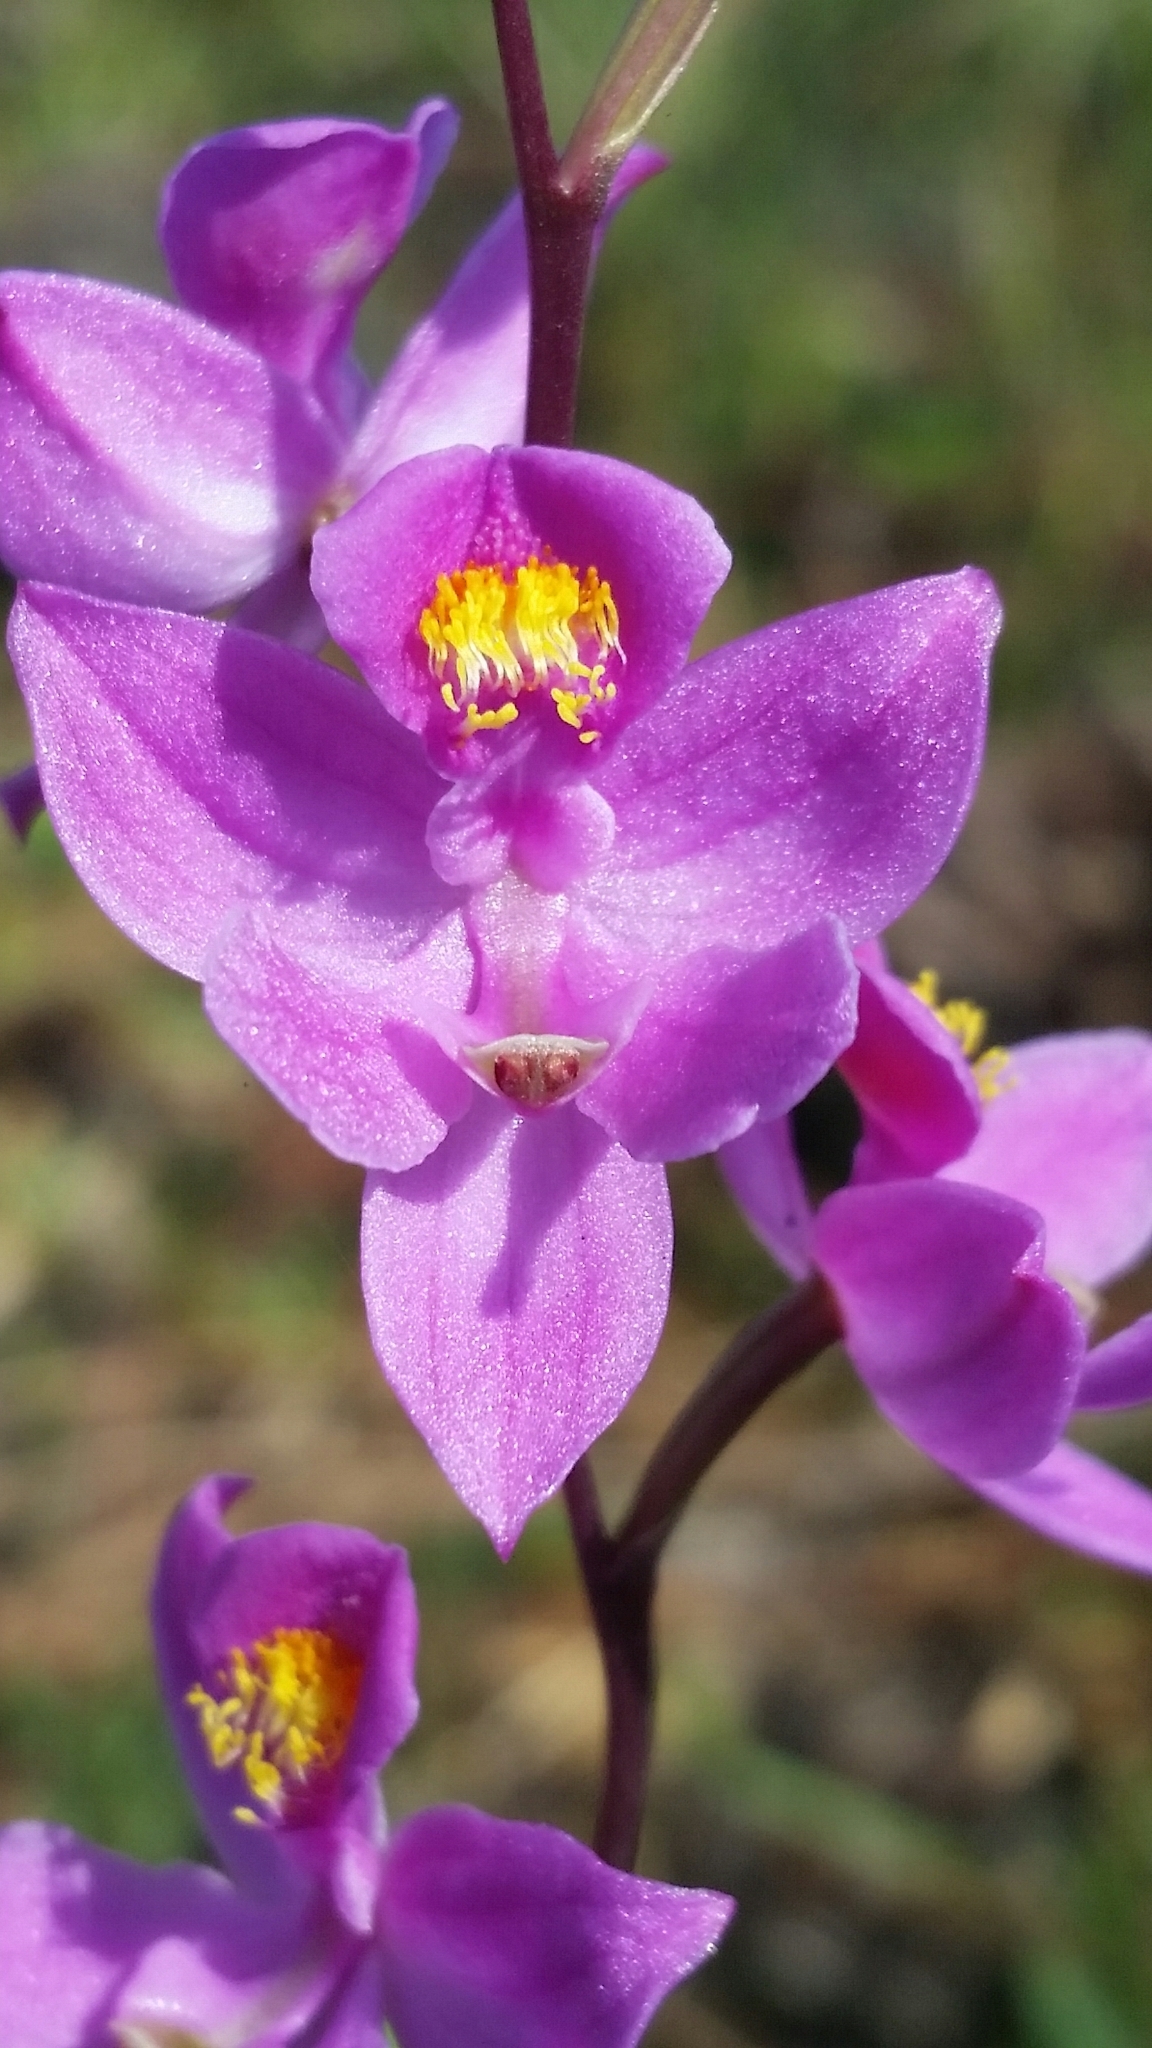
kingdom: Plantae
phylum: Tracheophyta
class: Liliopsida
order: Asparagales
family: Orchidaceae
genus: Calopogon
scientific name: Calopogon multiflorus
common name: Many-flowered grass-pink orchid
